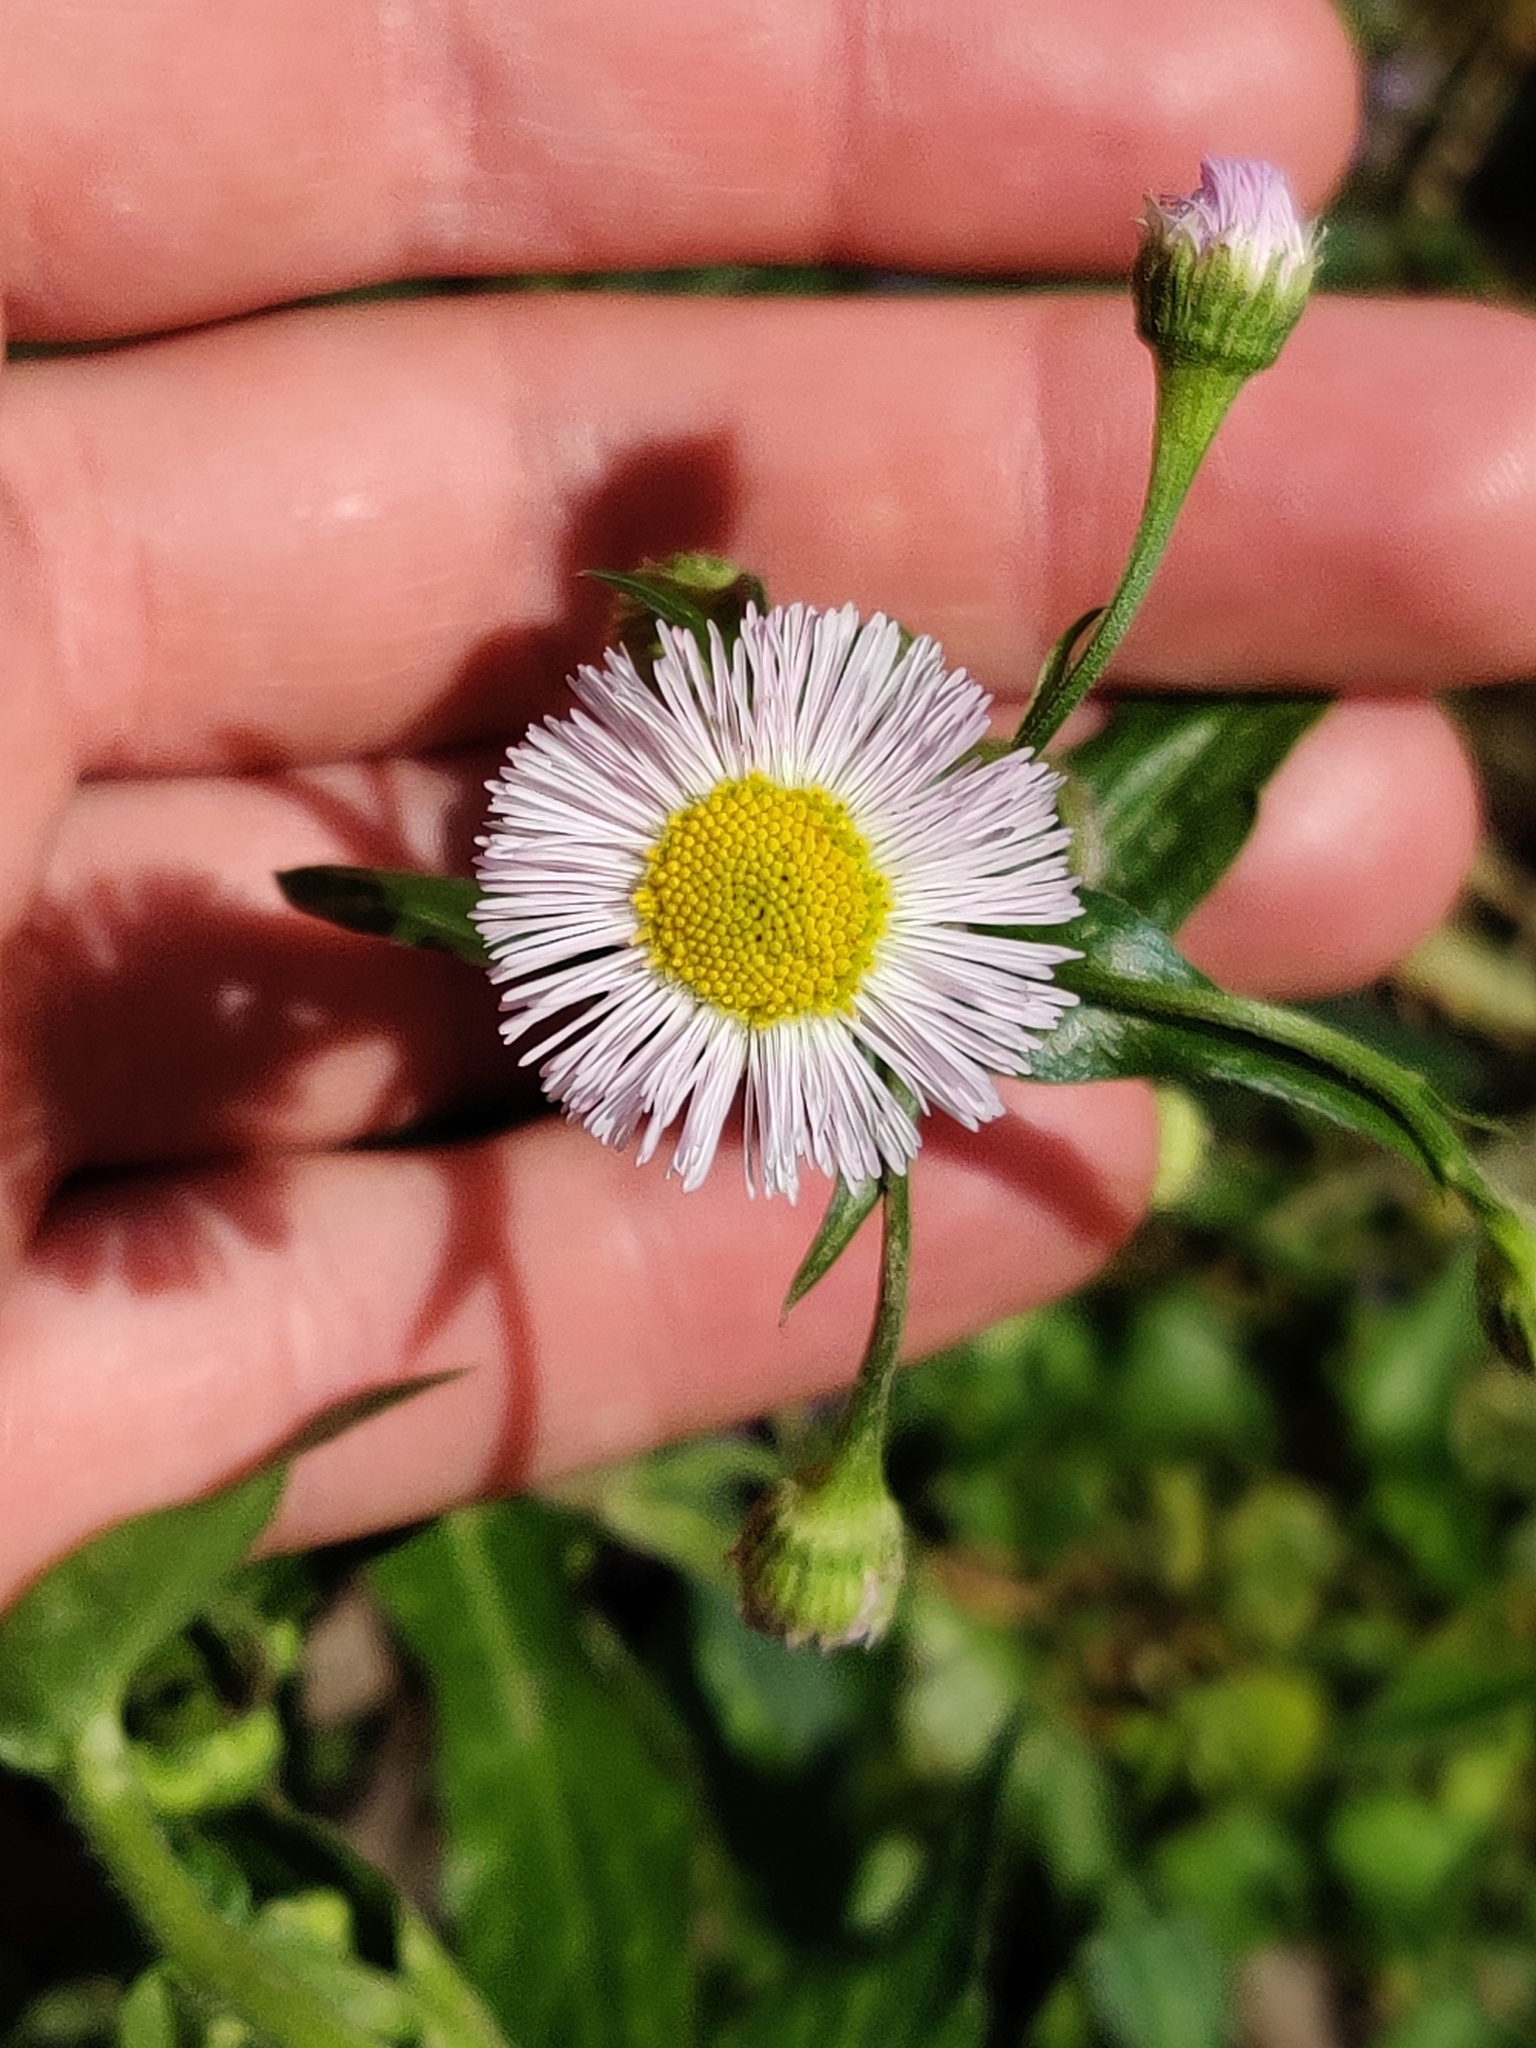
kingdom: Plantae
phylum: Tracheophyta
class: Magnoliopsida
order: Asterales
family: Asteraceae
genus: Erigeron
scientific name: Erigeron philadelphicus
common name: Robin's-plantain
